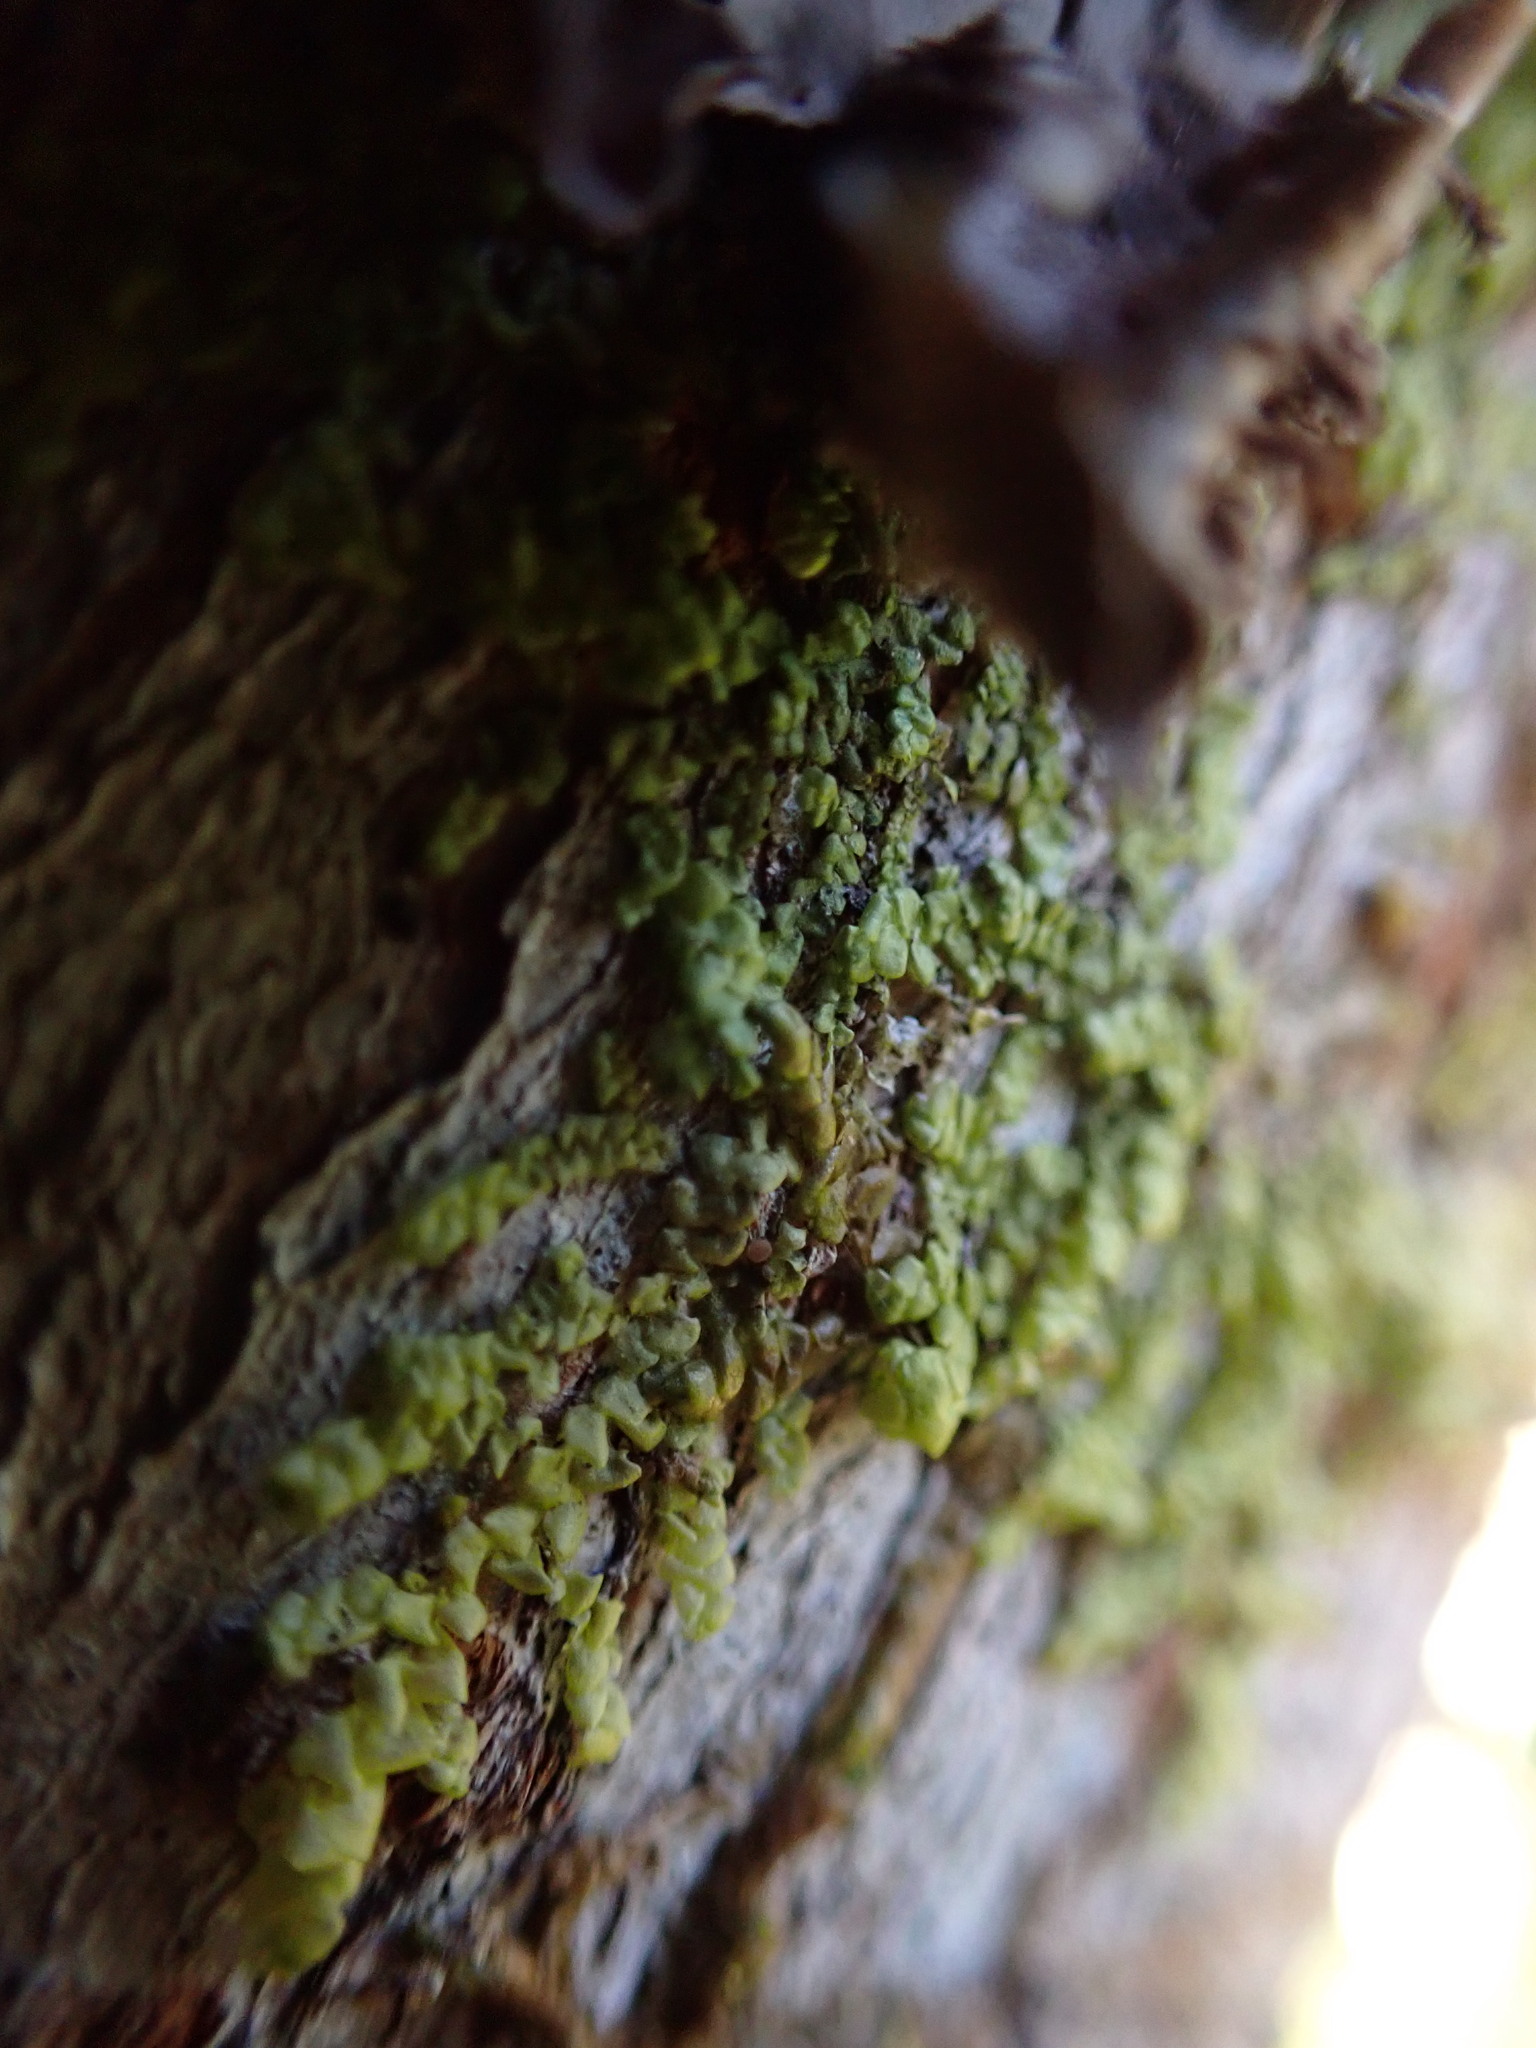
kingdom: Plantae
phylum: Marchantiophyta
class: Jungermanniopsida
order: Porellales
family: Radulaceae
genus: Radula
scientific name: Radula complanata
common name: Flat-leaved scalewort
